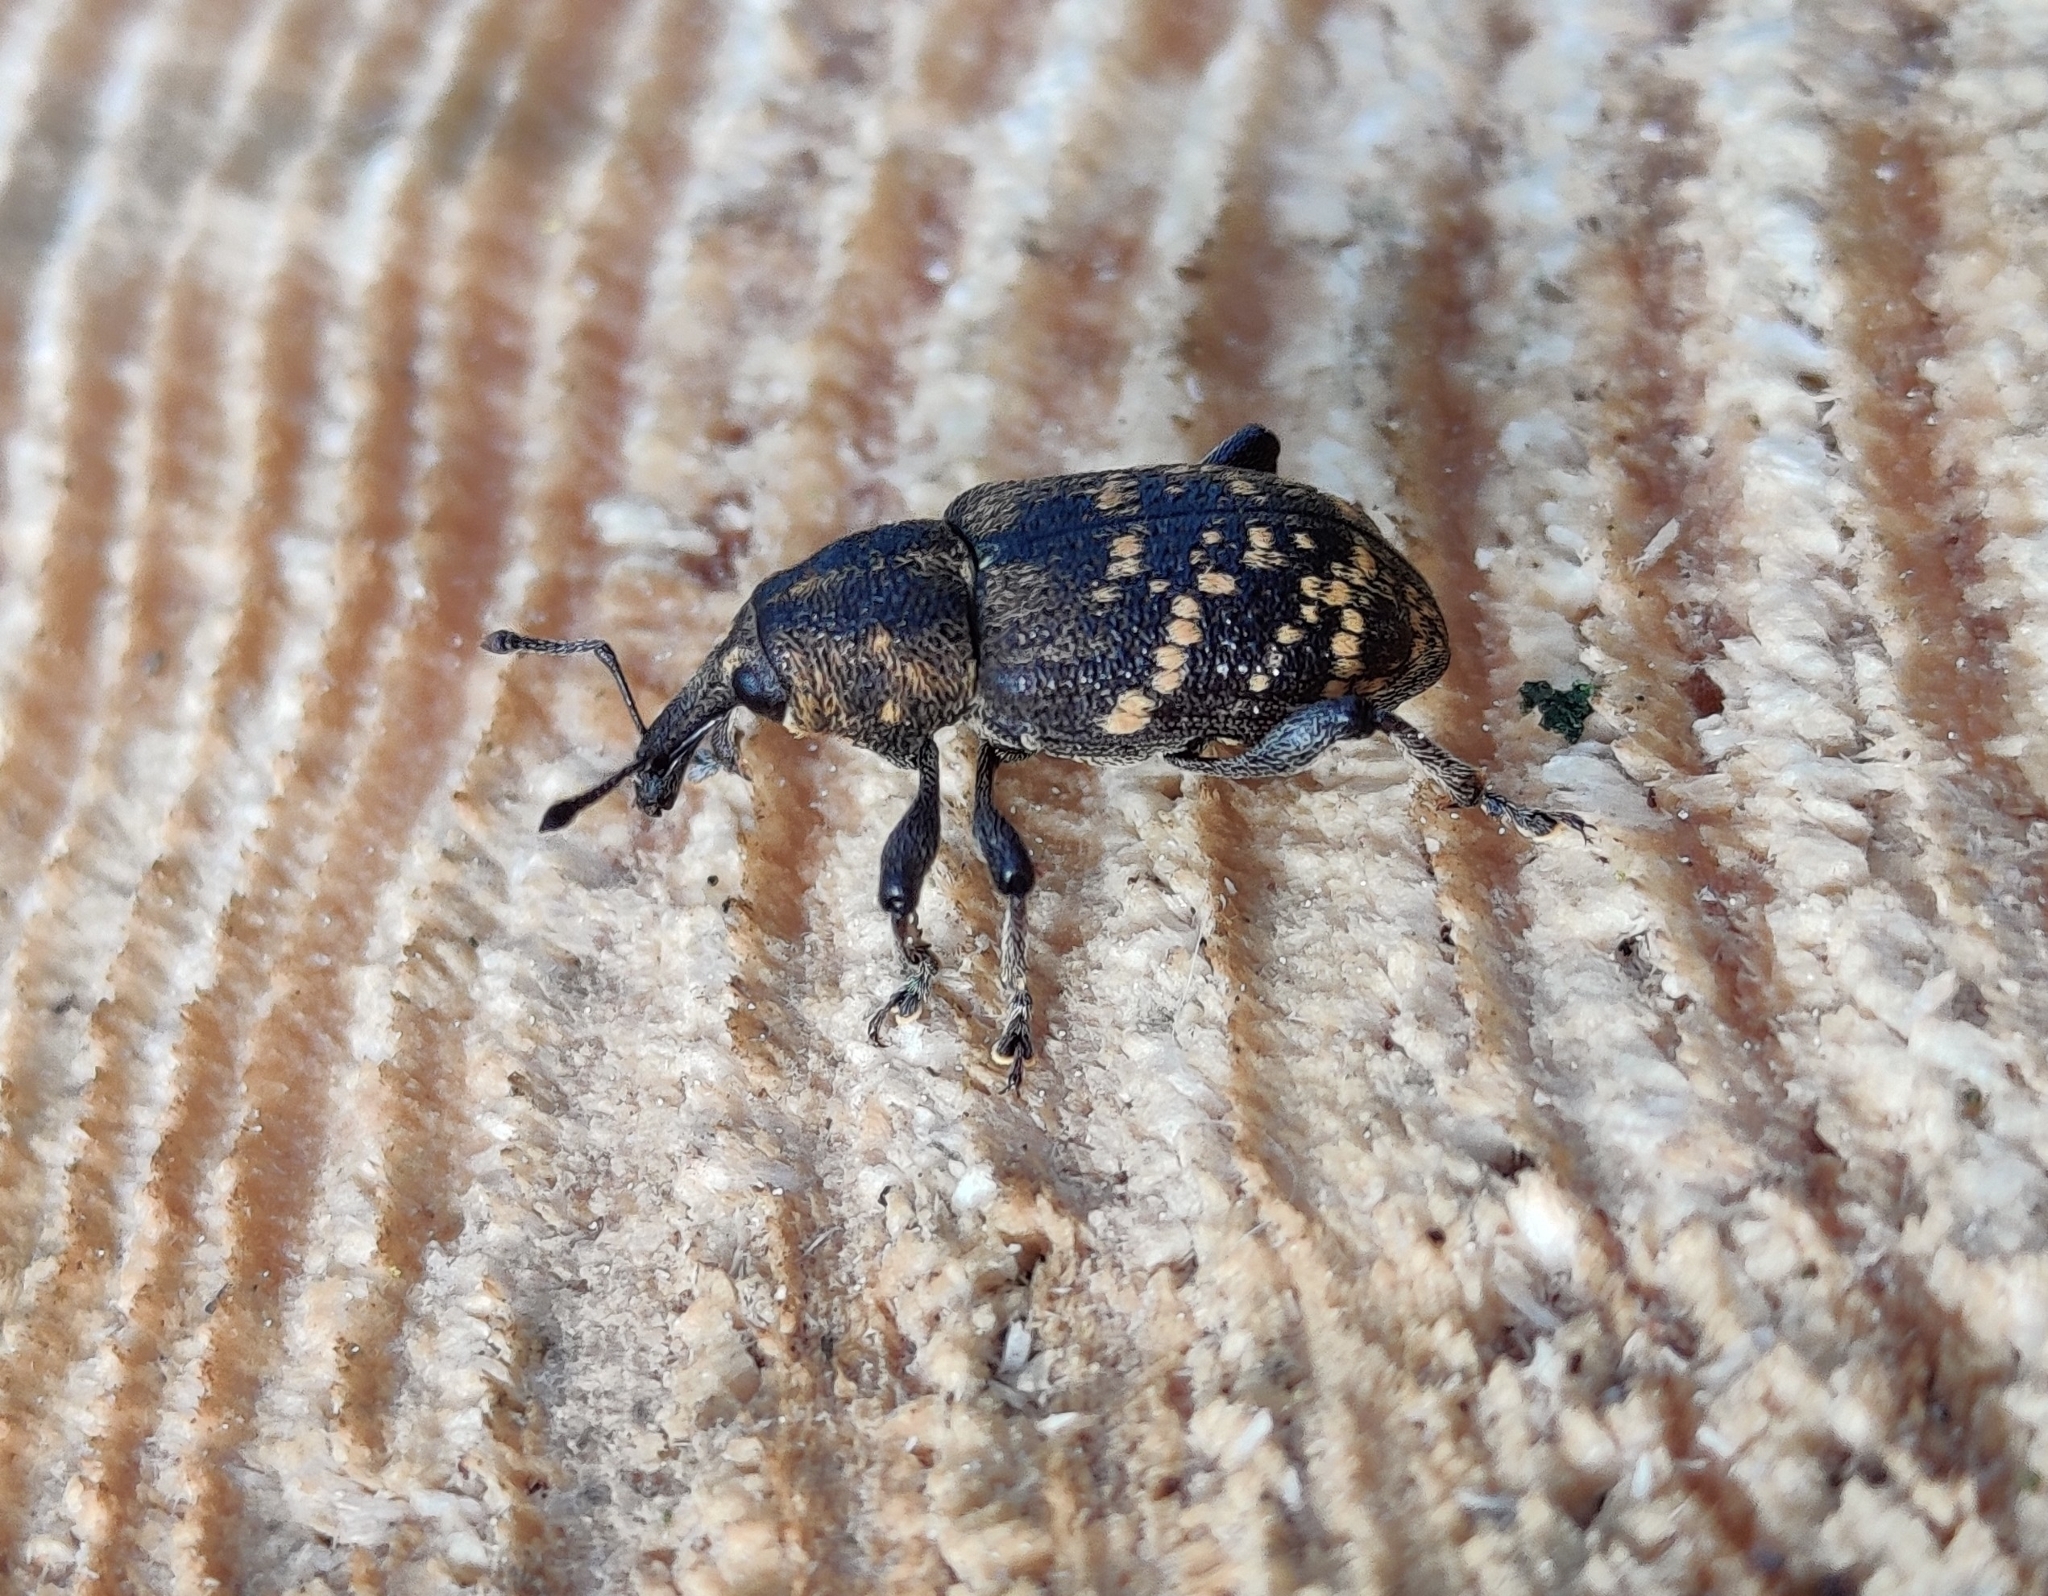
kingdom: Animalia
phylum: Arthropoda
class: Insecta
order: Coleoptera
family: Curculionidae
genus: Hylobius
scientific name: Hylobius abietis
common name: Large pine weevil
